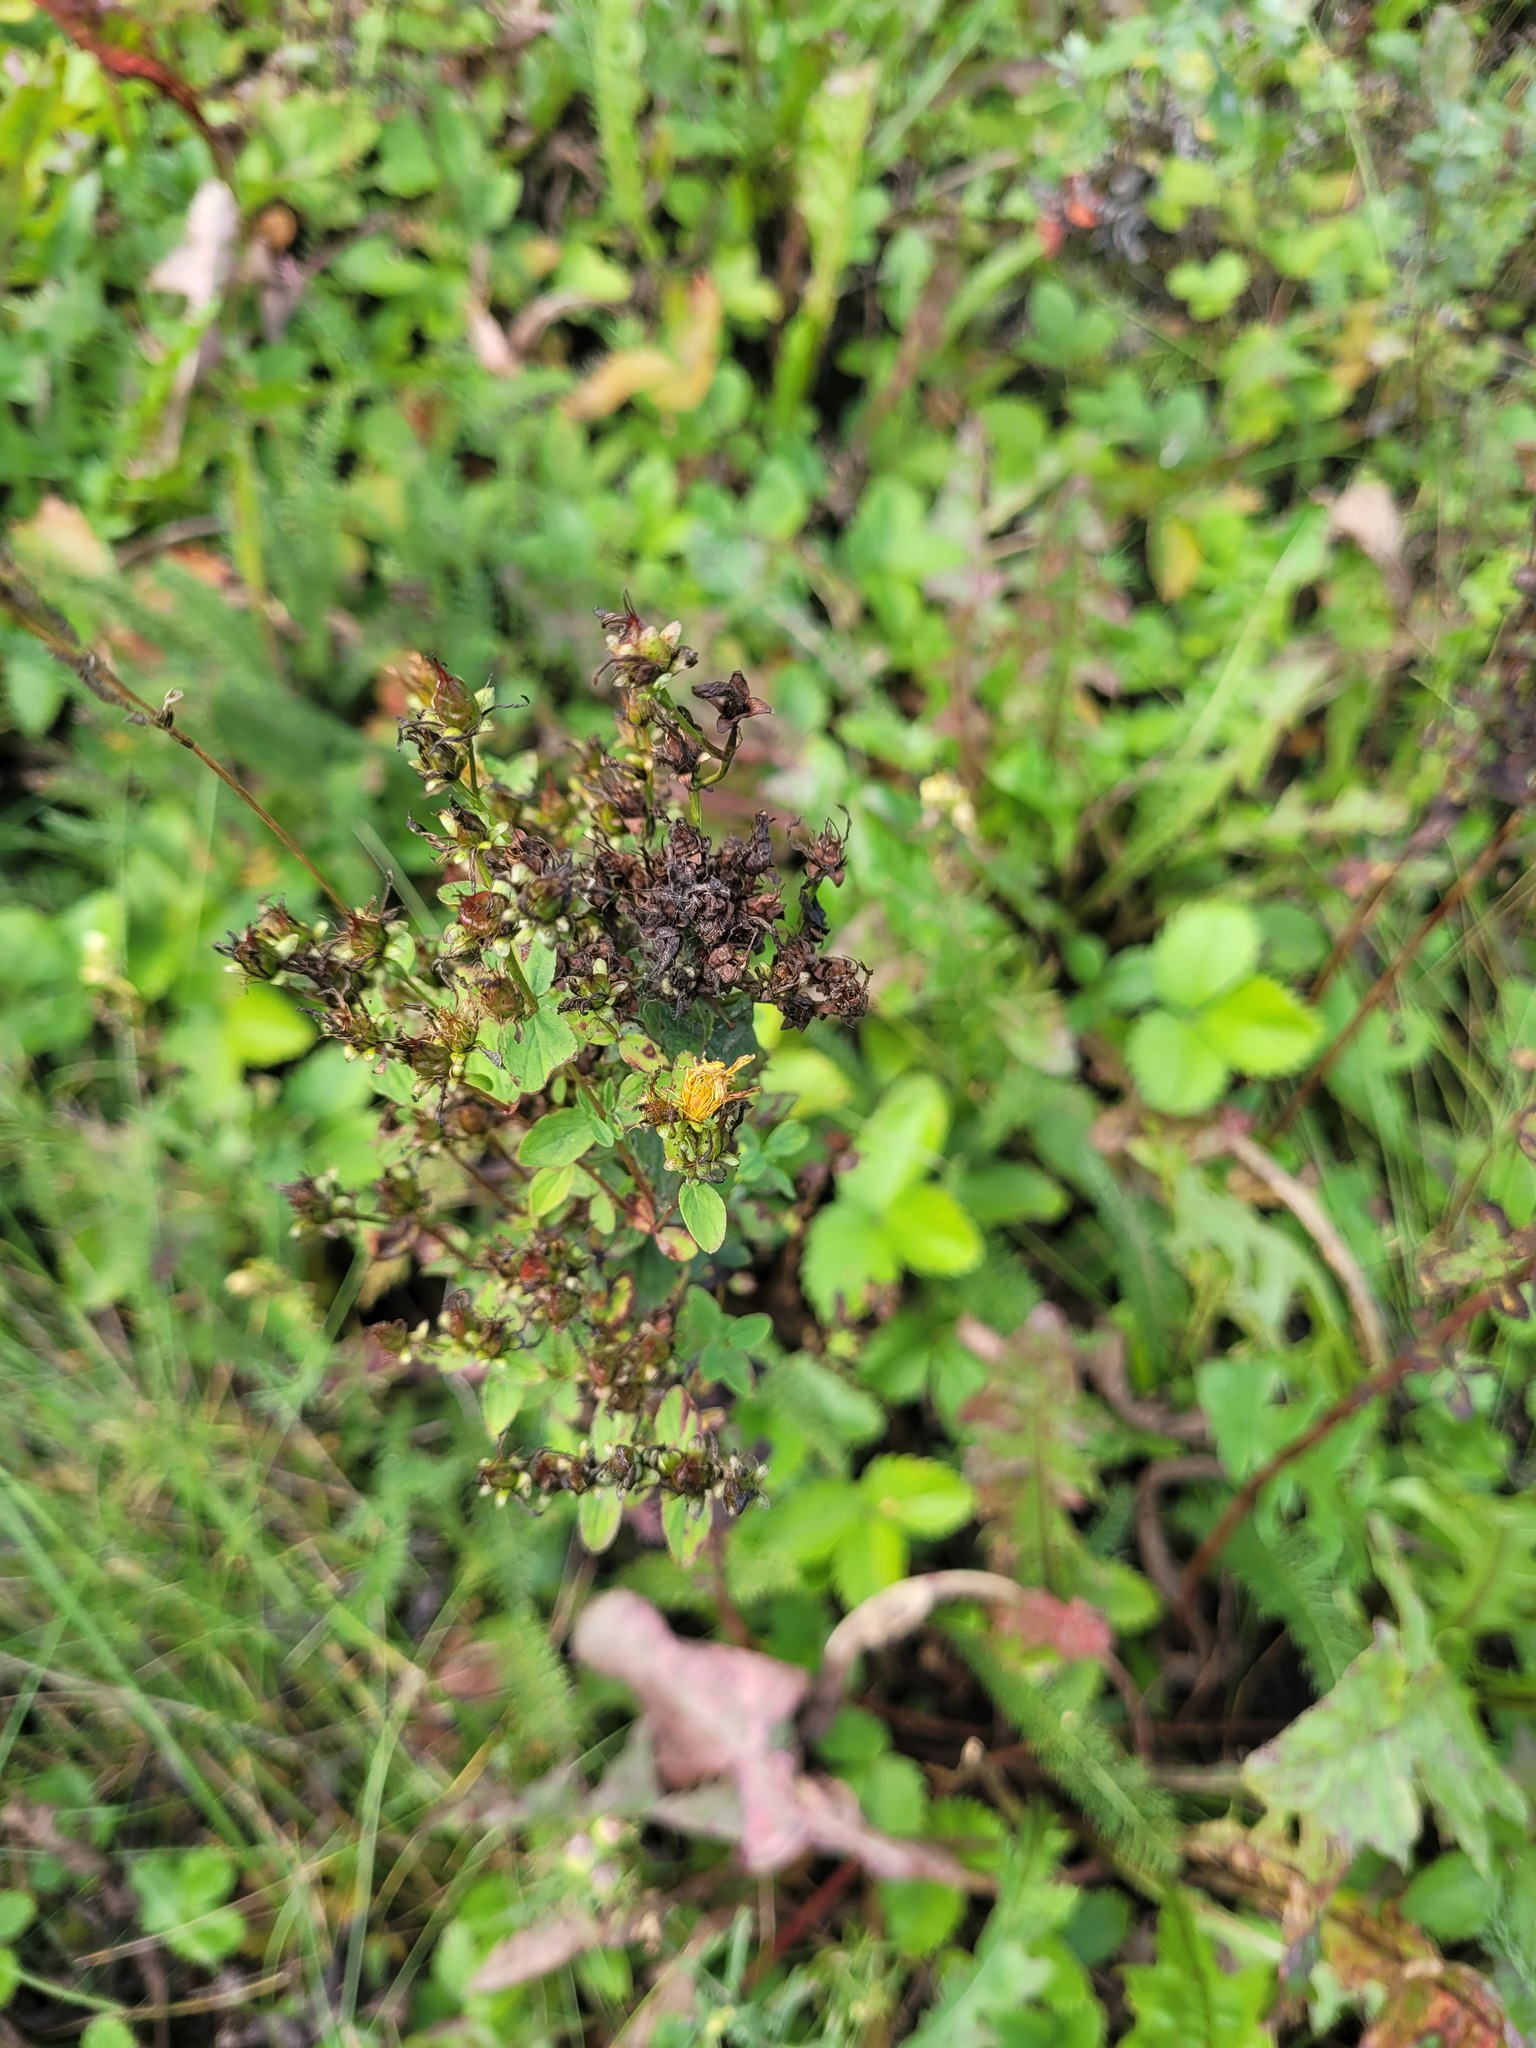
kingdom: Plantae
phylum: Tracheophyta
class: Magnoliopsida
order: Malpighiales
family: Hypericaceae
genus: Hypericum
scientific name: Hypericum maculatum
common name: Imperforate st. john's-wort
